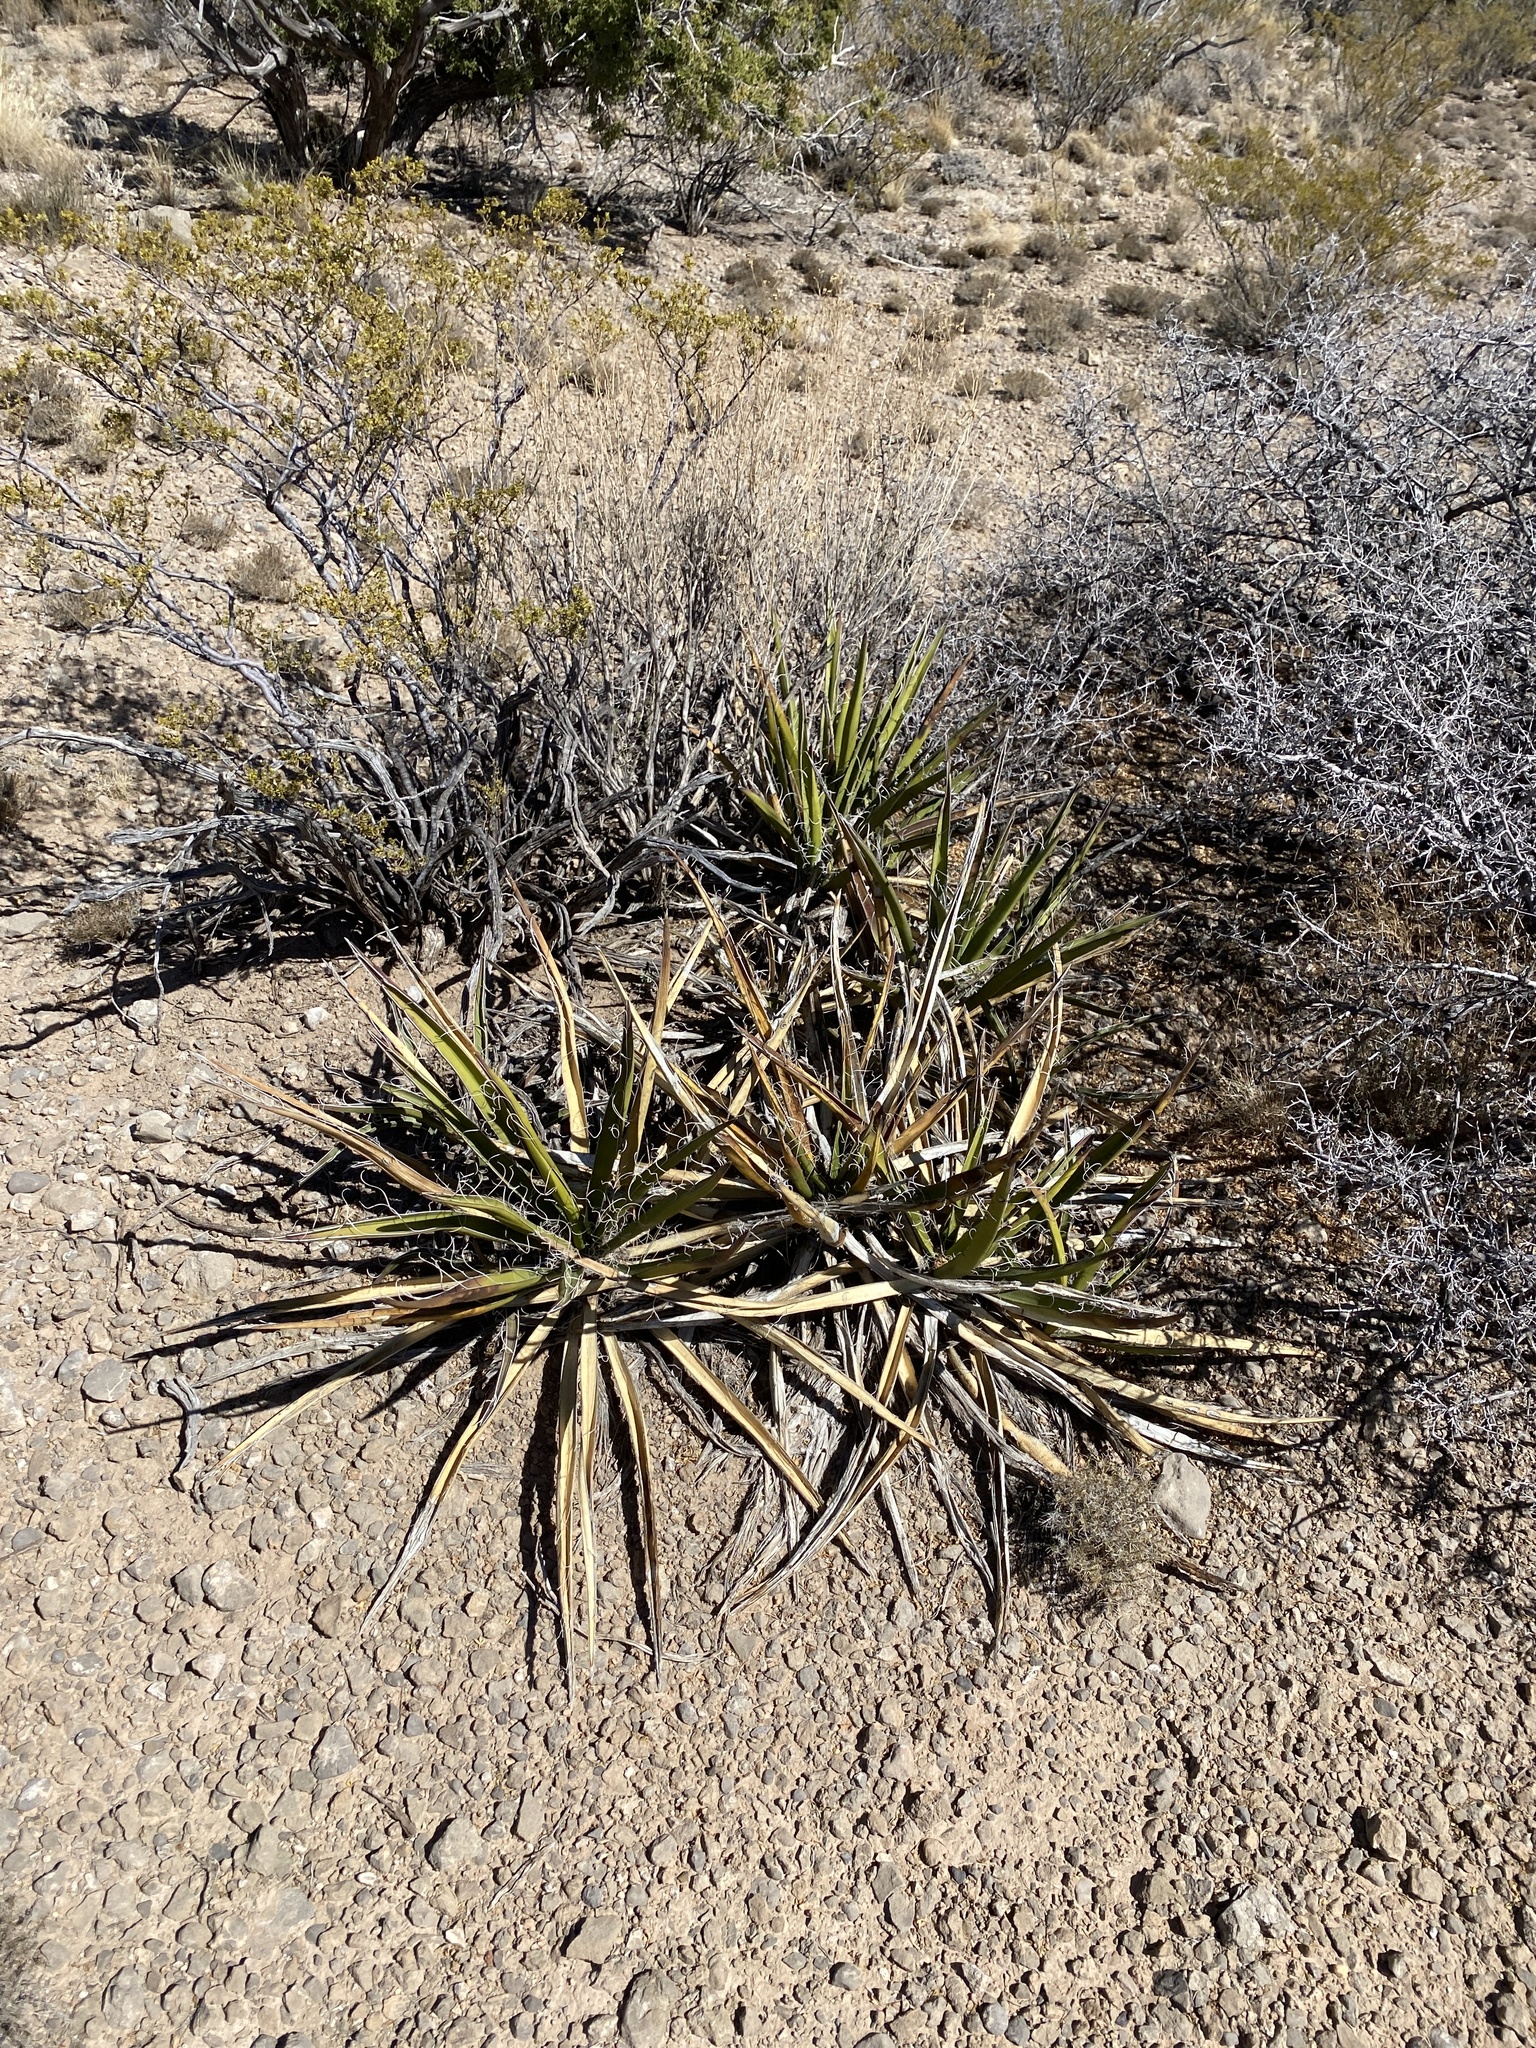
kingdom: Plantae
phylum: Tracheophyta
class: Liliopsida
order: Asparagales
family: Asparagaceae
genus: Yucca
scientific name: Yucca baccata
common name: Banana yucca
